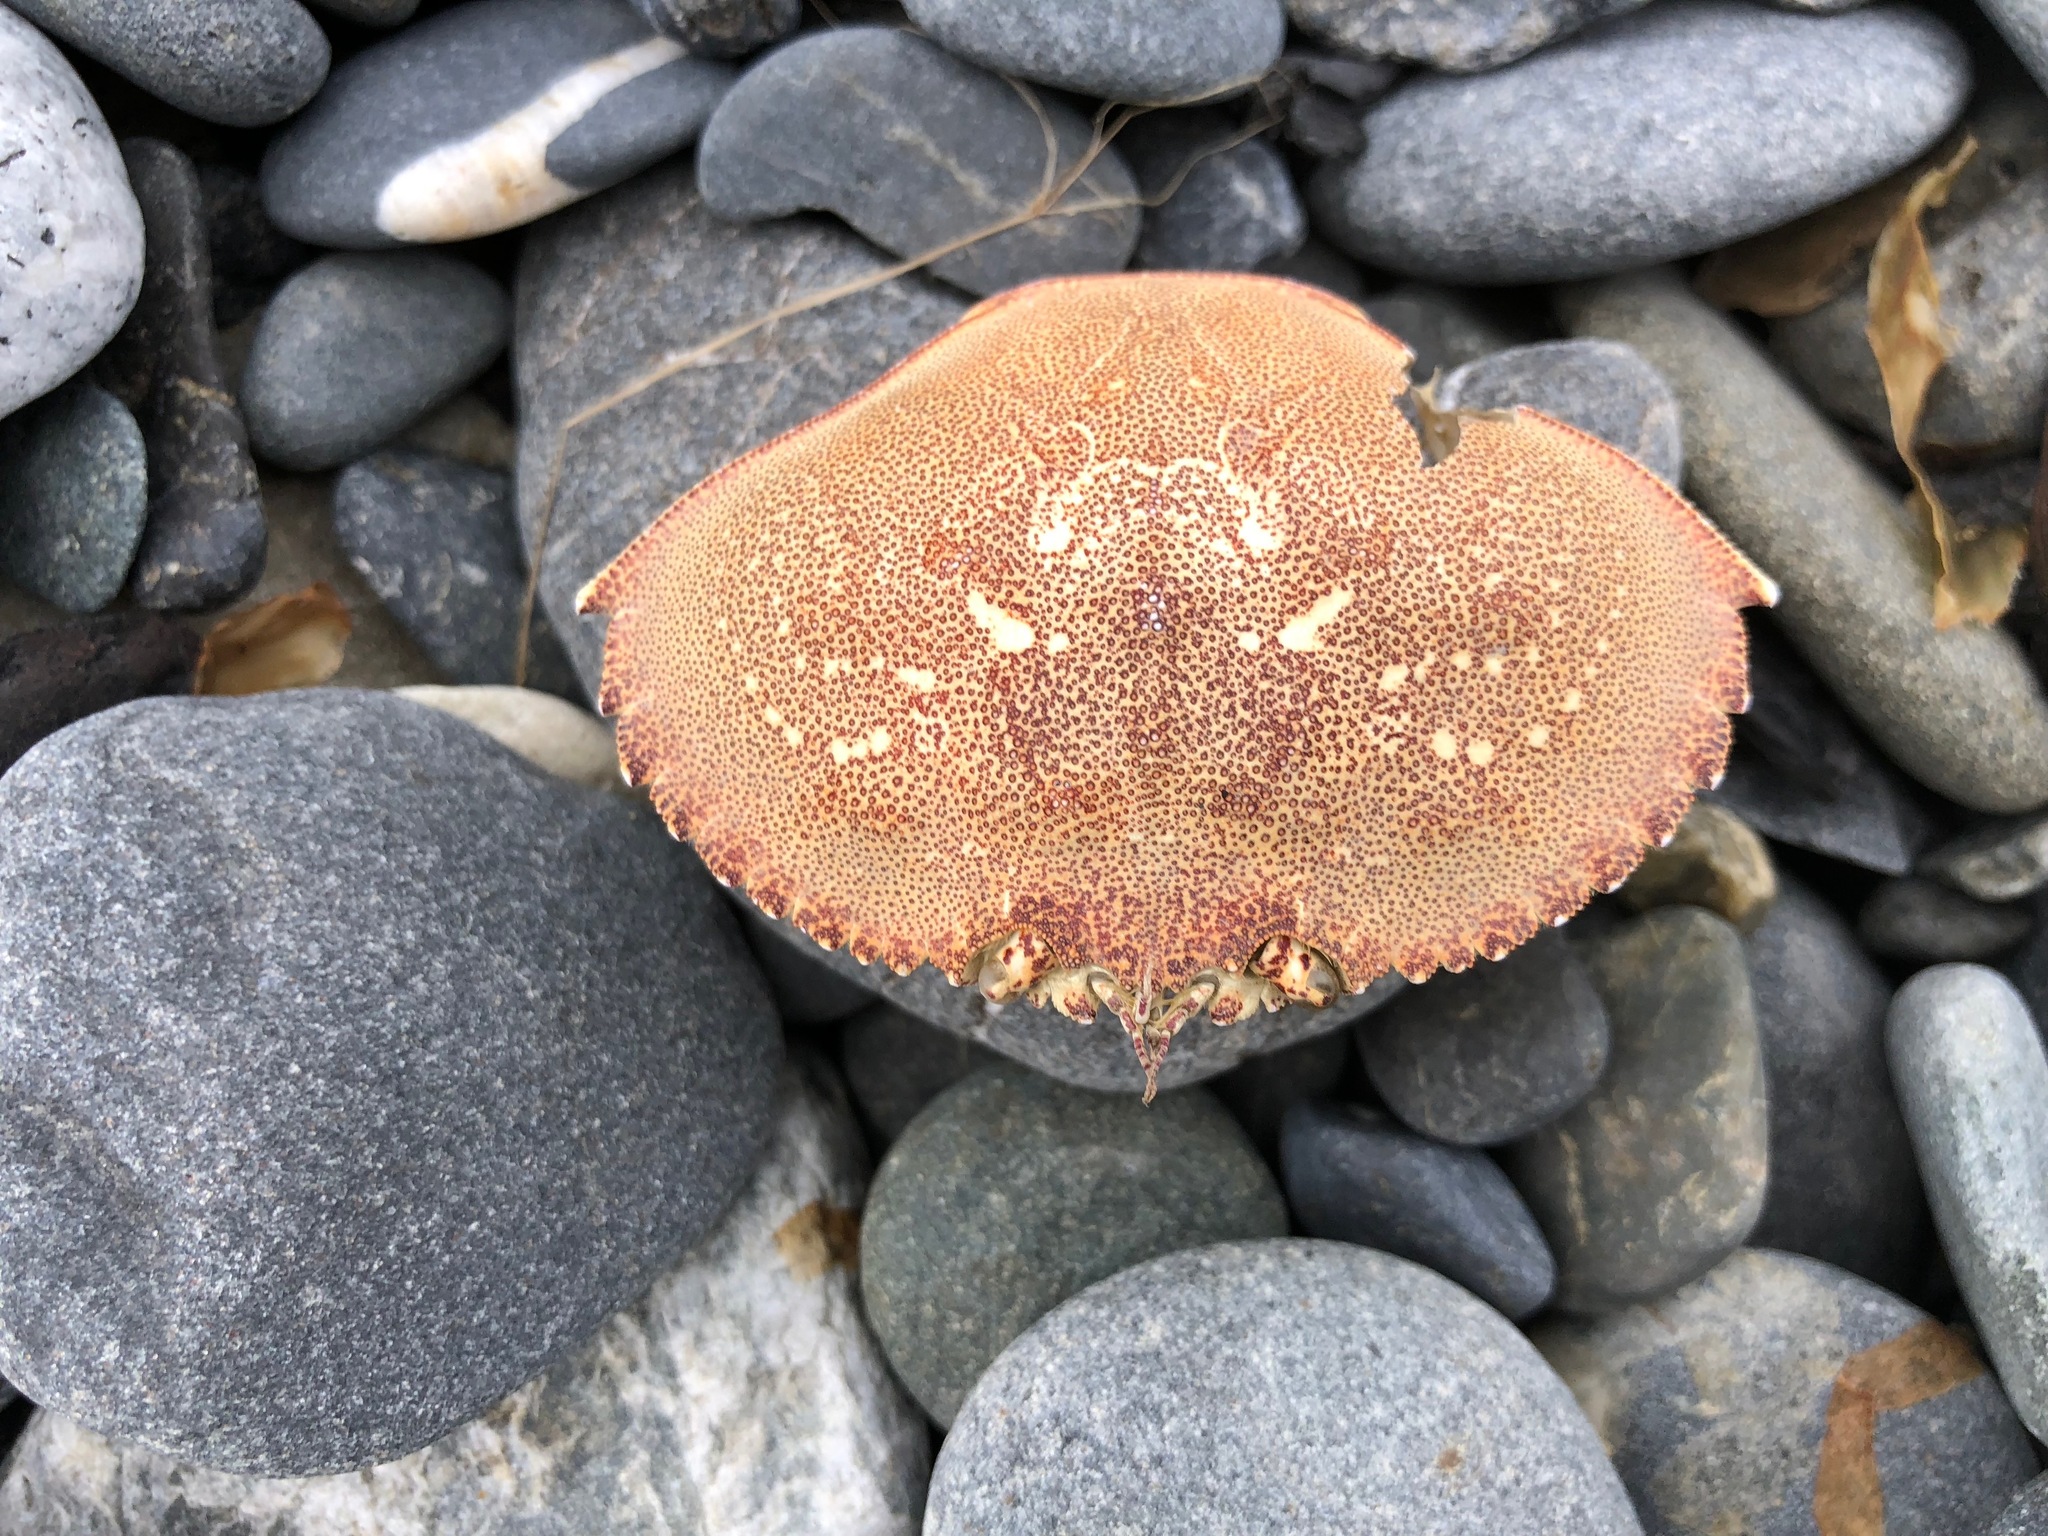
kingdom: Animalia
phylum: Arthropoda
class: Malacostraca
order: Decapoda
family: Cancridae
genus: Metacarcinus
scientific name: Metacarcinus magister
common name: Californian crab
